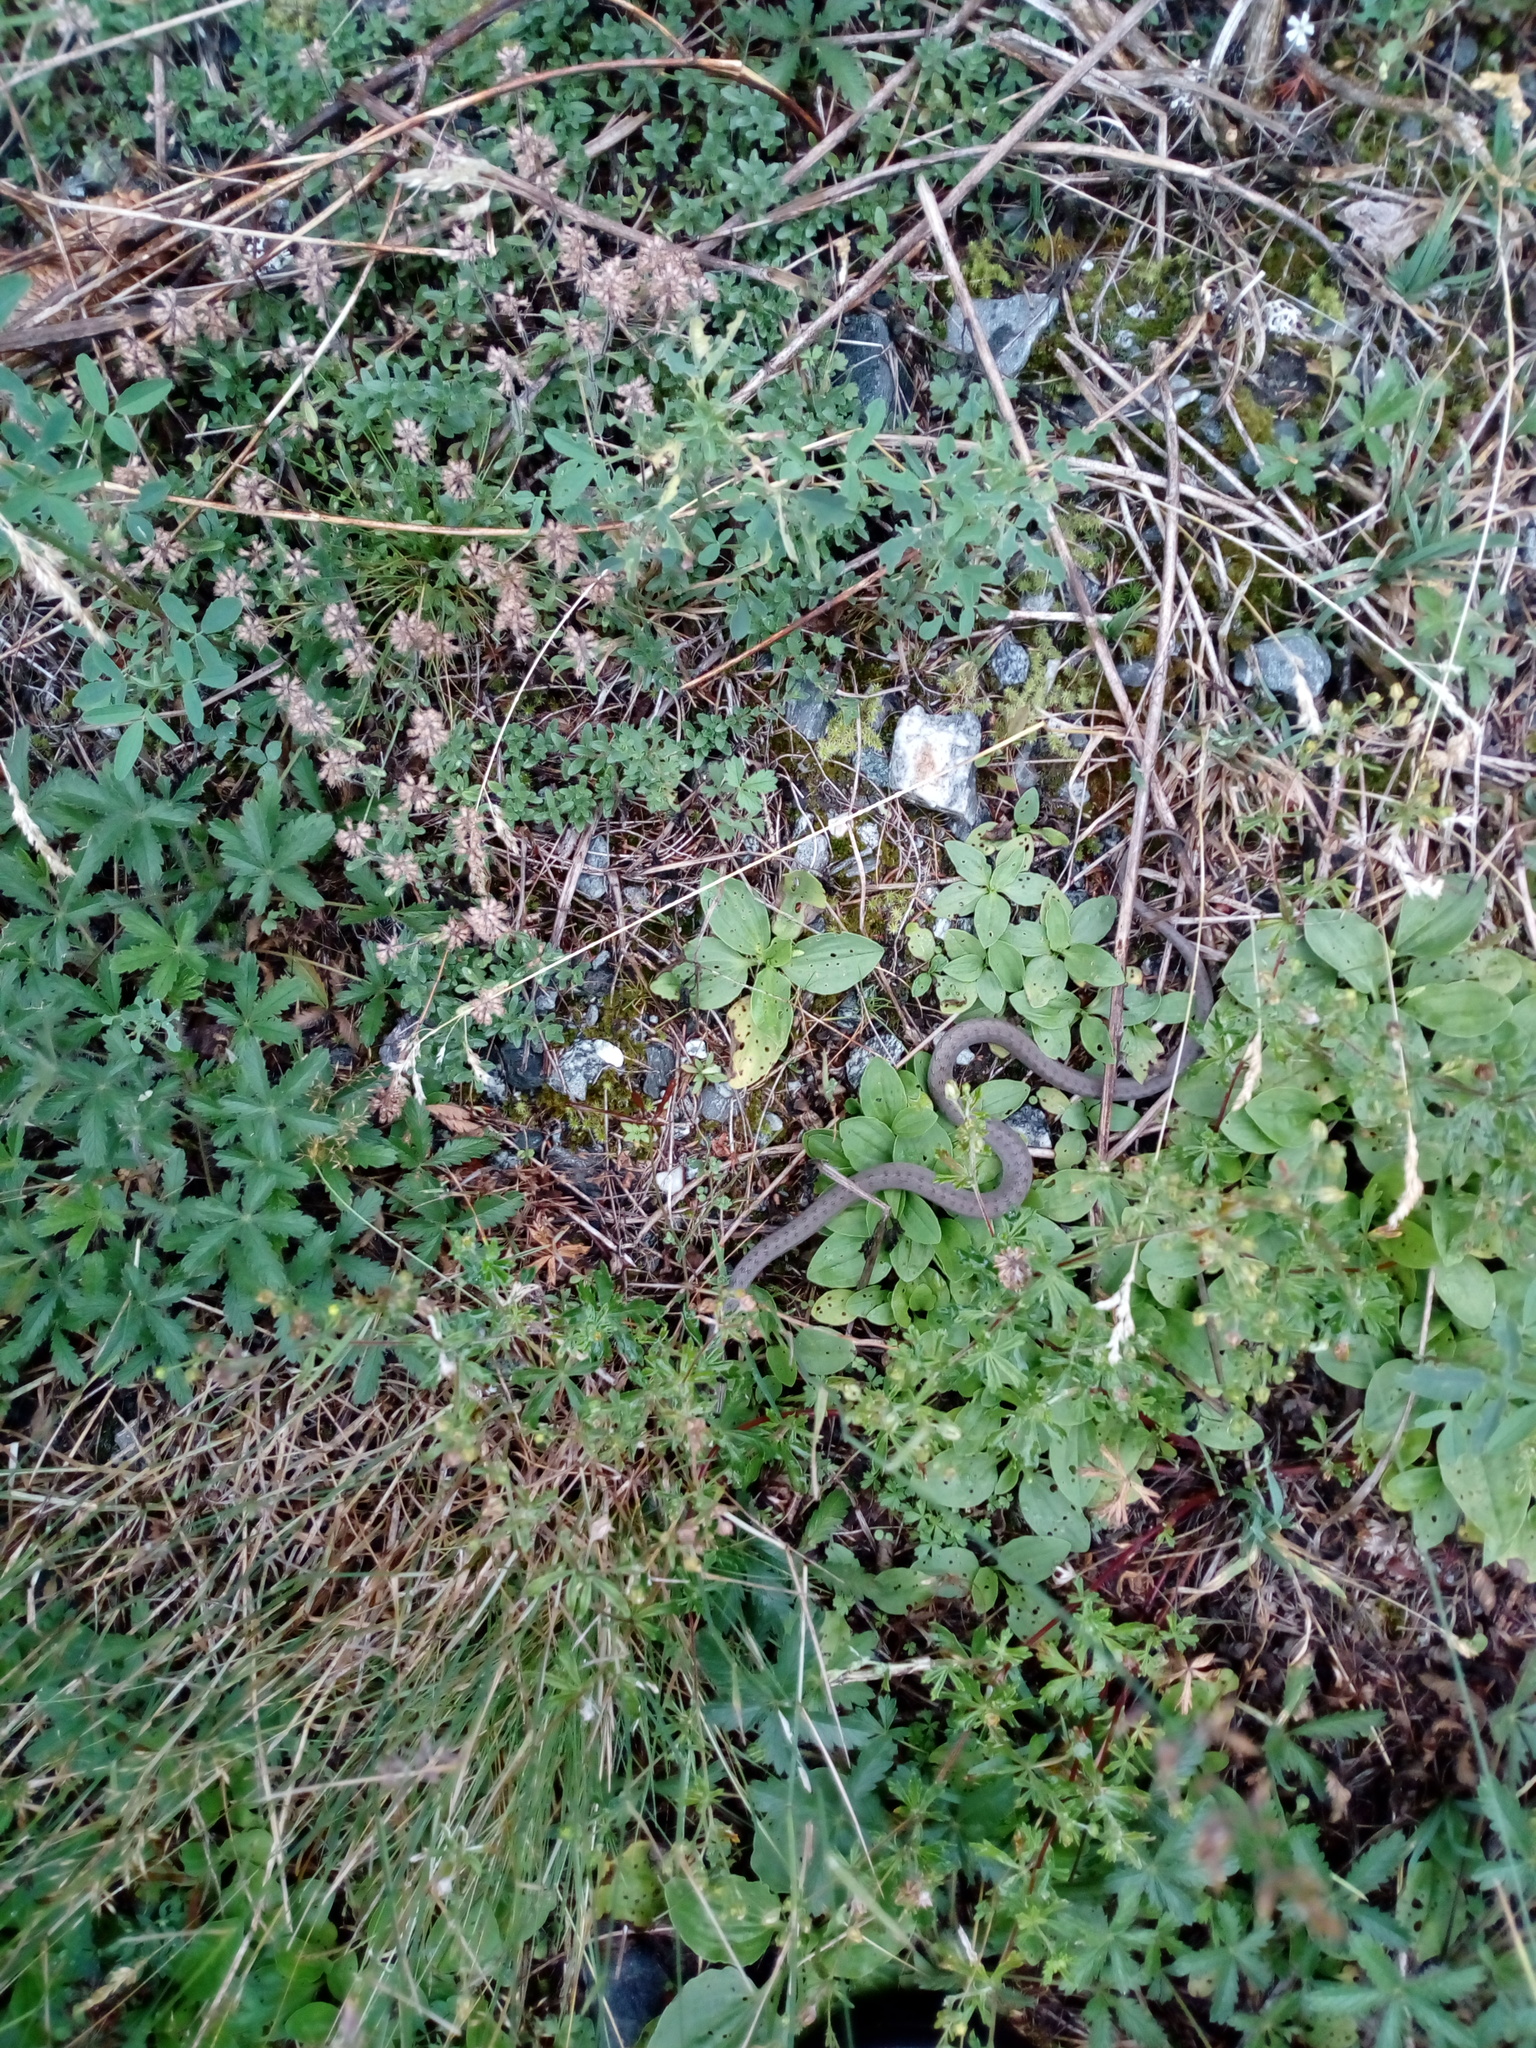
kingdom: Animalia
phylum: Chordata
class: Squamata
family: Colubridae
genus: Coronella
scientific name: Coronella austriaca
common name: Smooth snake
